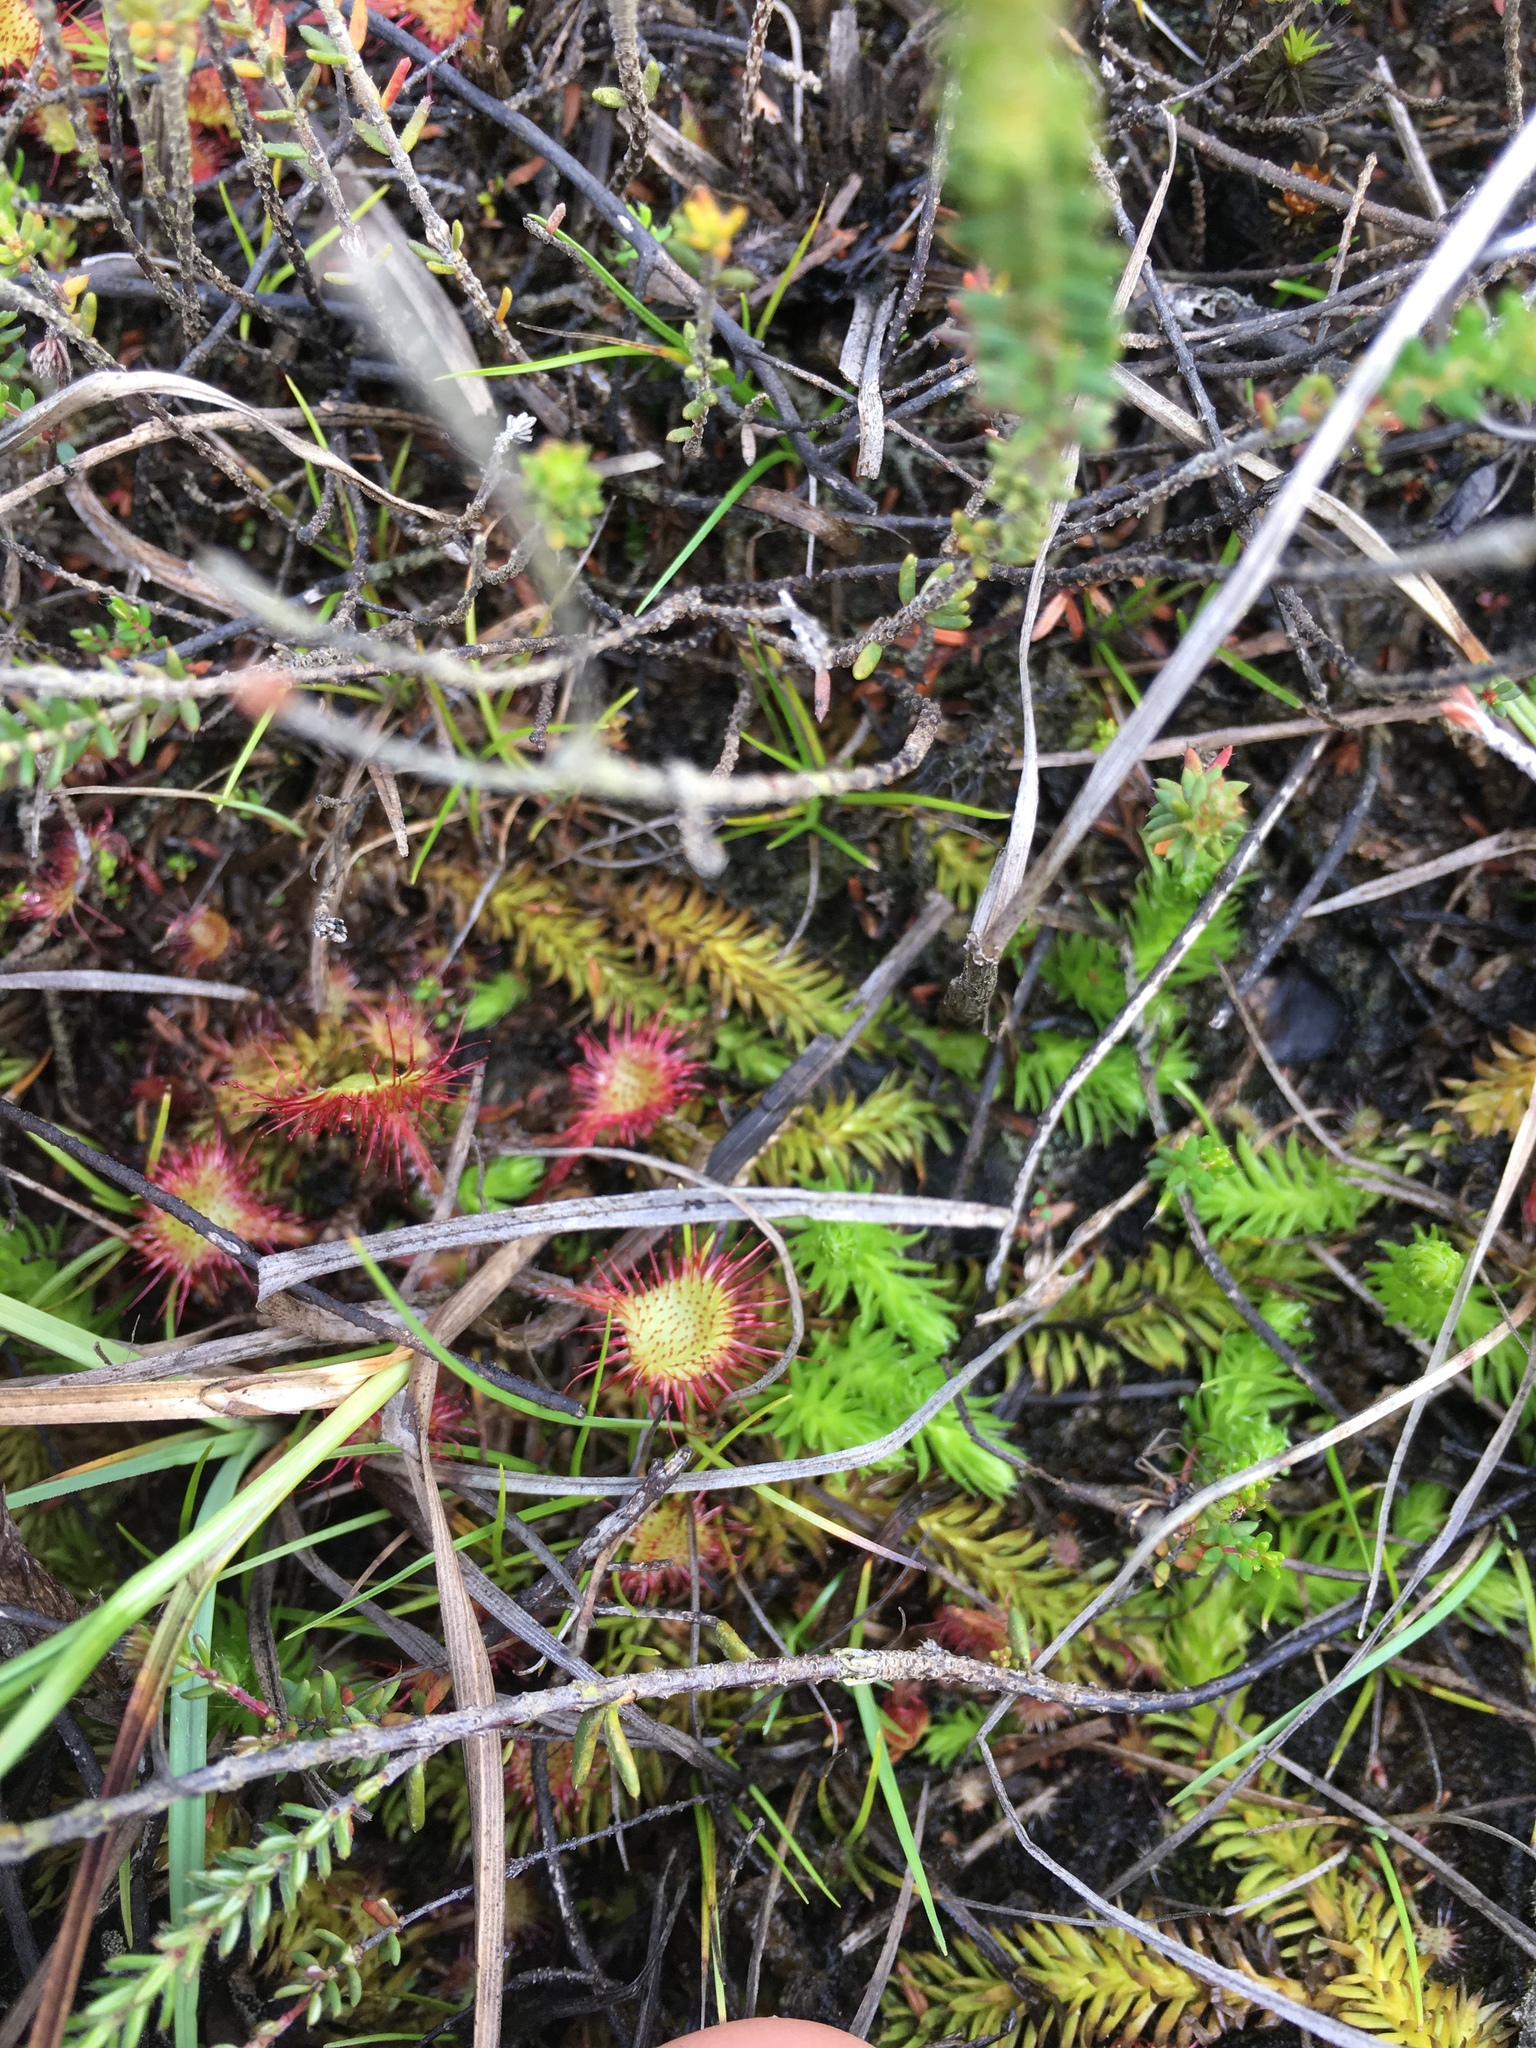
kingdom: Plantae
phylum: Tracheophyta
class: Magnoliopsida
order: Caryophyllales
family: Droseraceae
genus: Drosera
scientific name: Drosera rotundifolia
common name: Round-leaved sundew
